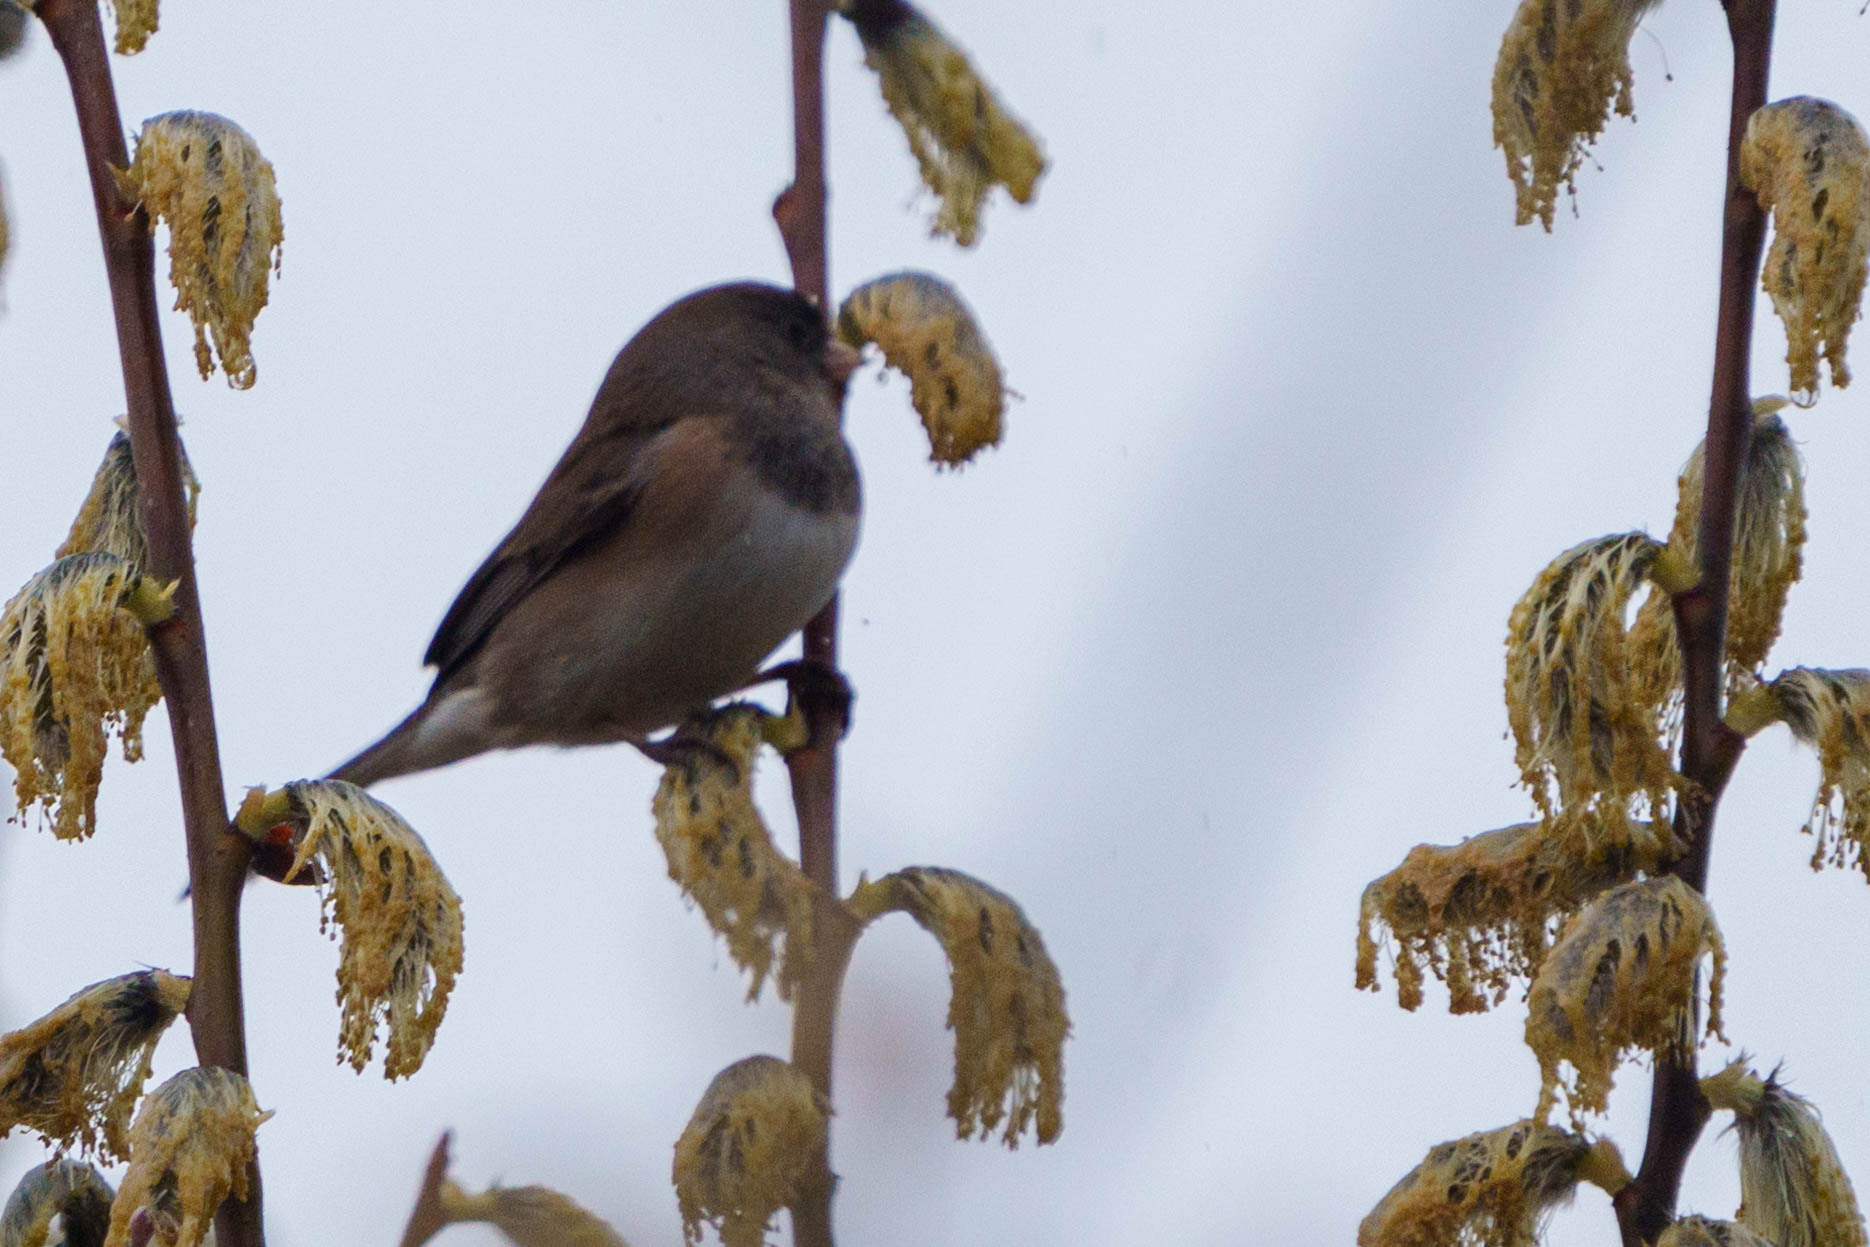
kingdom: Animalia
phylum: Chordata
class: Aves
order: Passeriformes
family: Passerellidae
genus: Junco
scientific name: Junco hyemalis
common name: Dark-eyed junco
